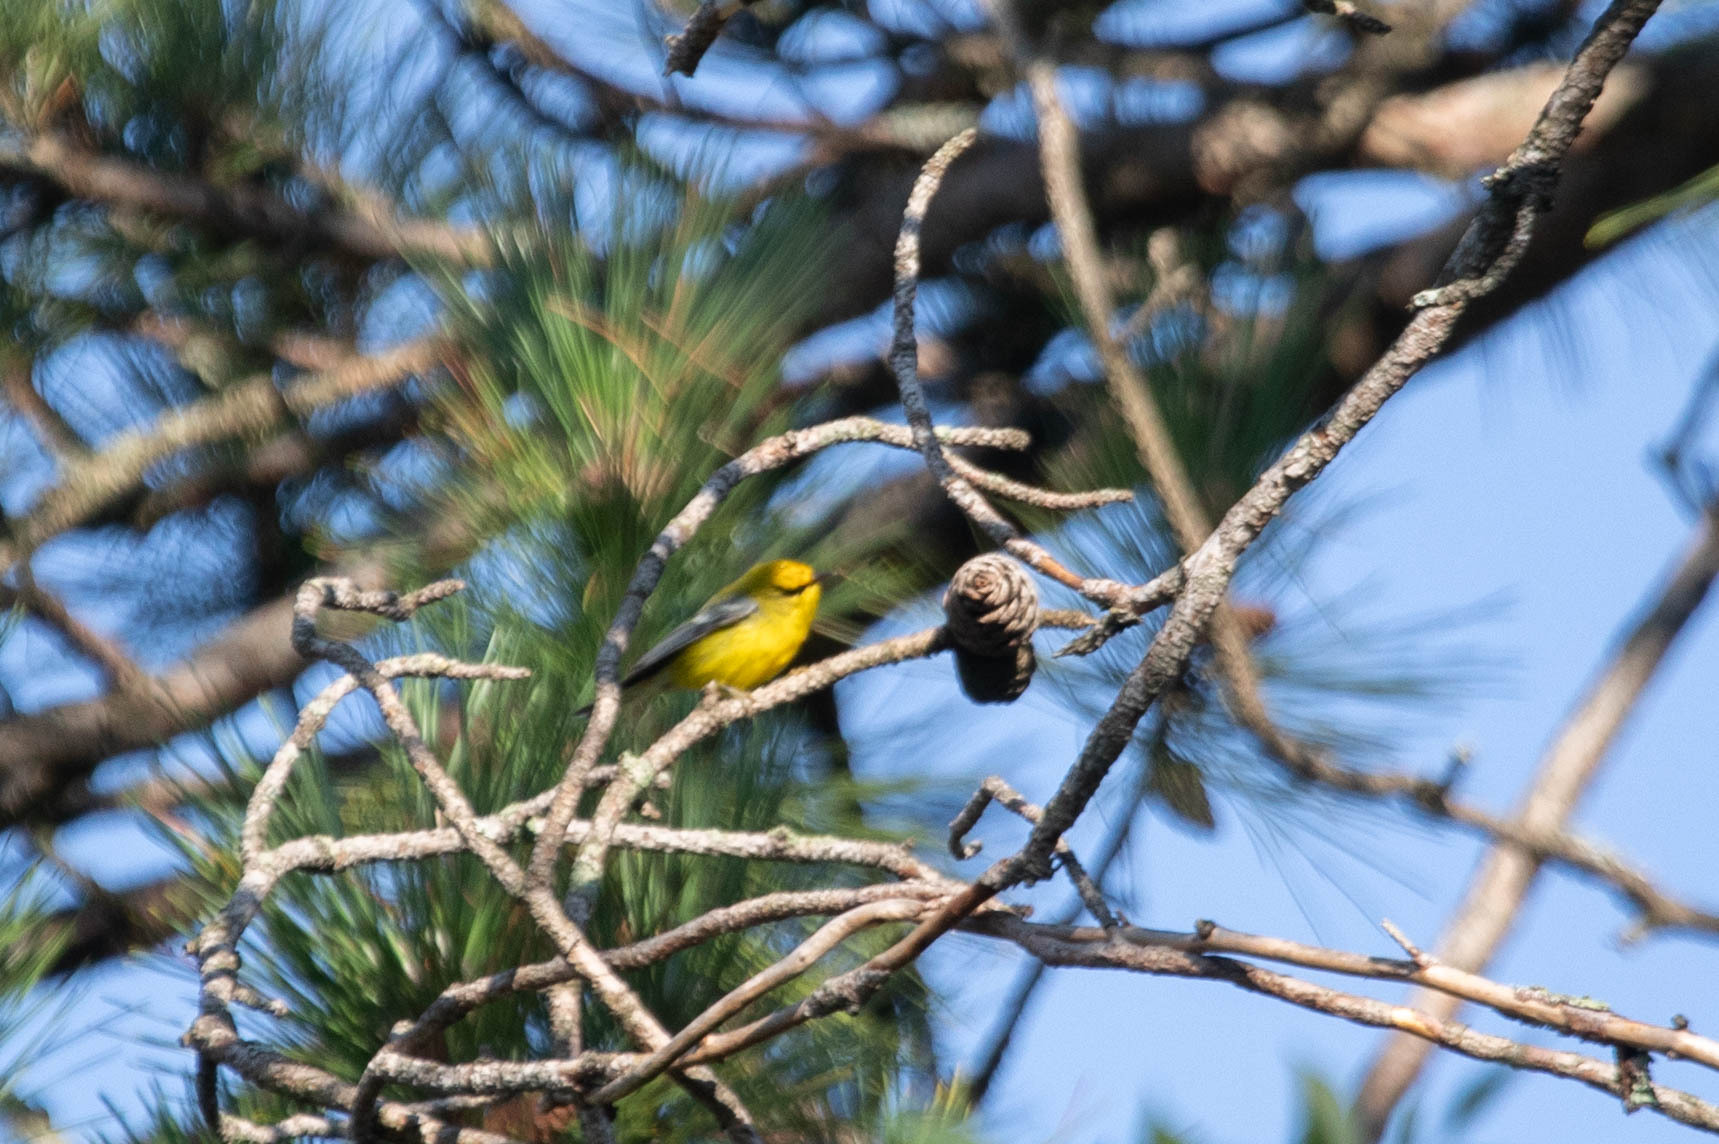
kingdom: Animalia
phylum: Chordata
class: Aves
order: Passeriformes
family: Parulidae
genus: Vermivora
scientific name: Vermivora cyanoptera
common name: Blue-winged warbler
